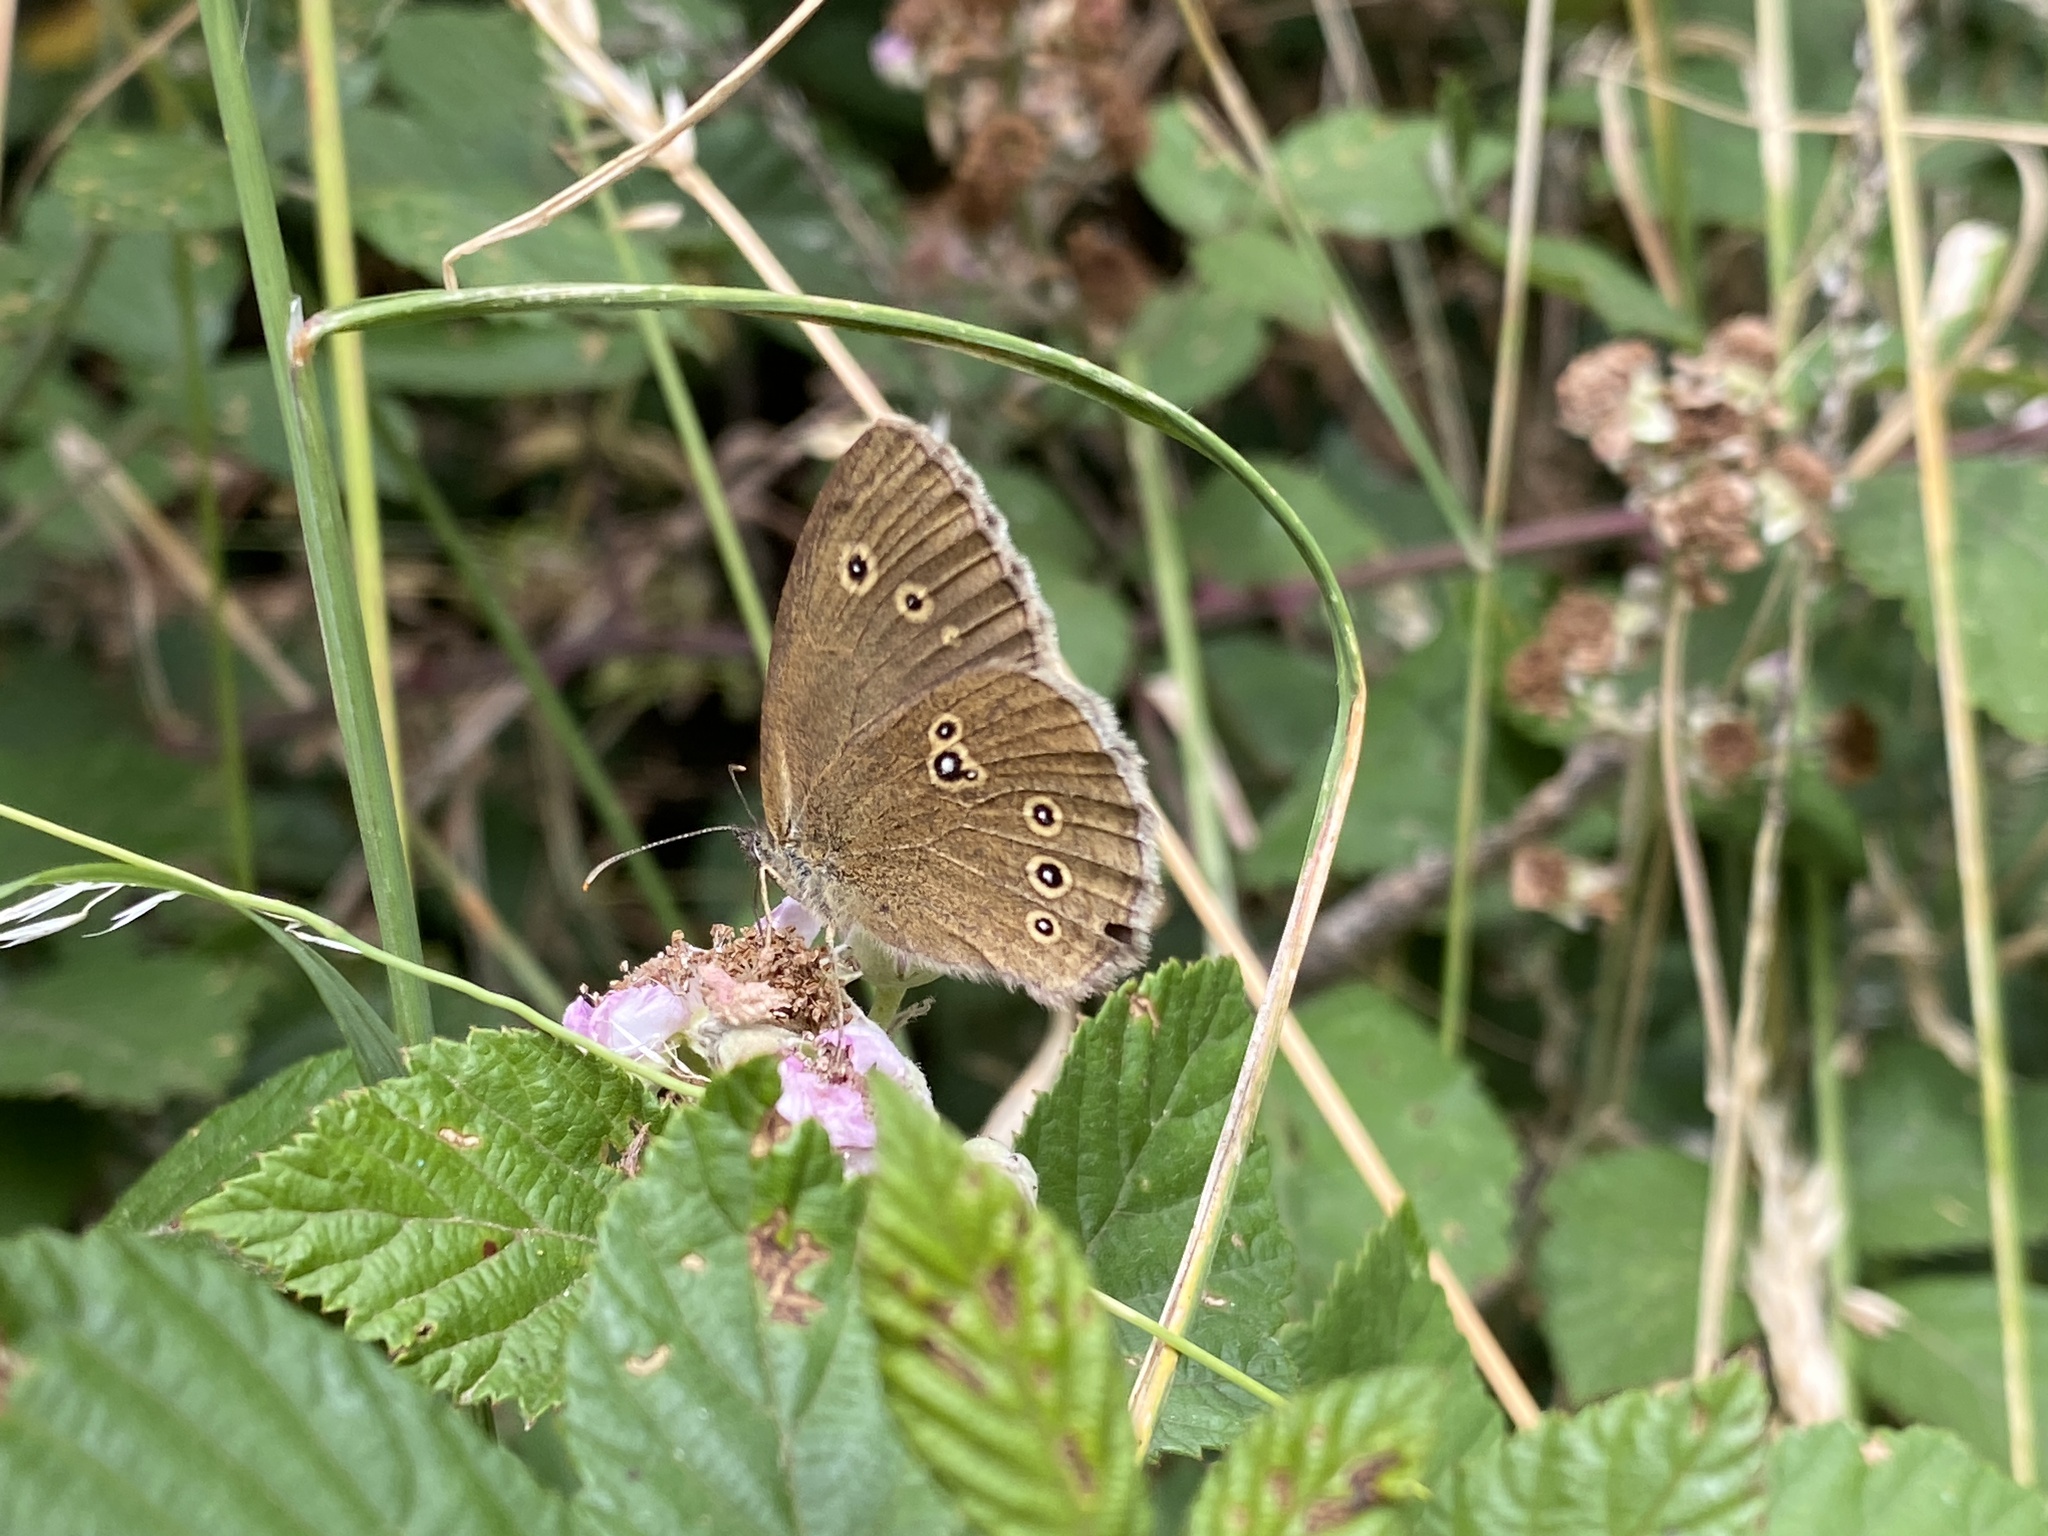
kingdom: Animalia
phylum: Arthropoda
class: Insecta
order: Lepidoptera
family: Nymphalidae
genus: Aphantopus
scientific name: Aphantopus hyperantus
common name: Ringlet
